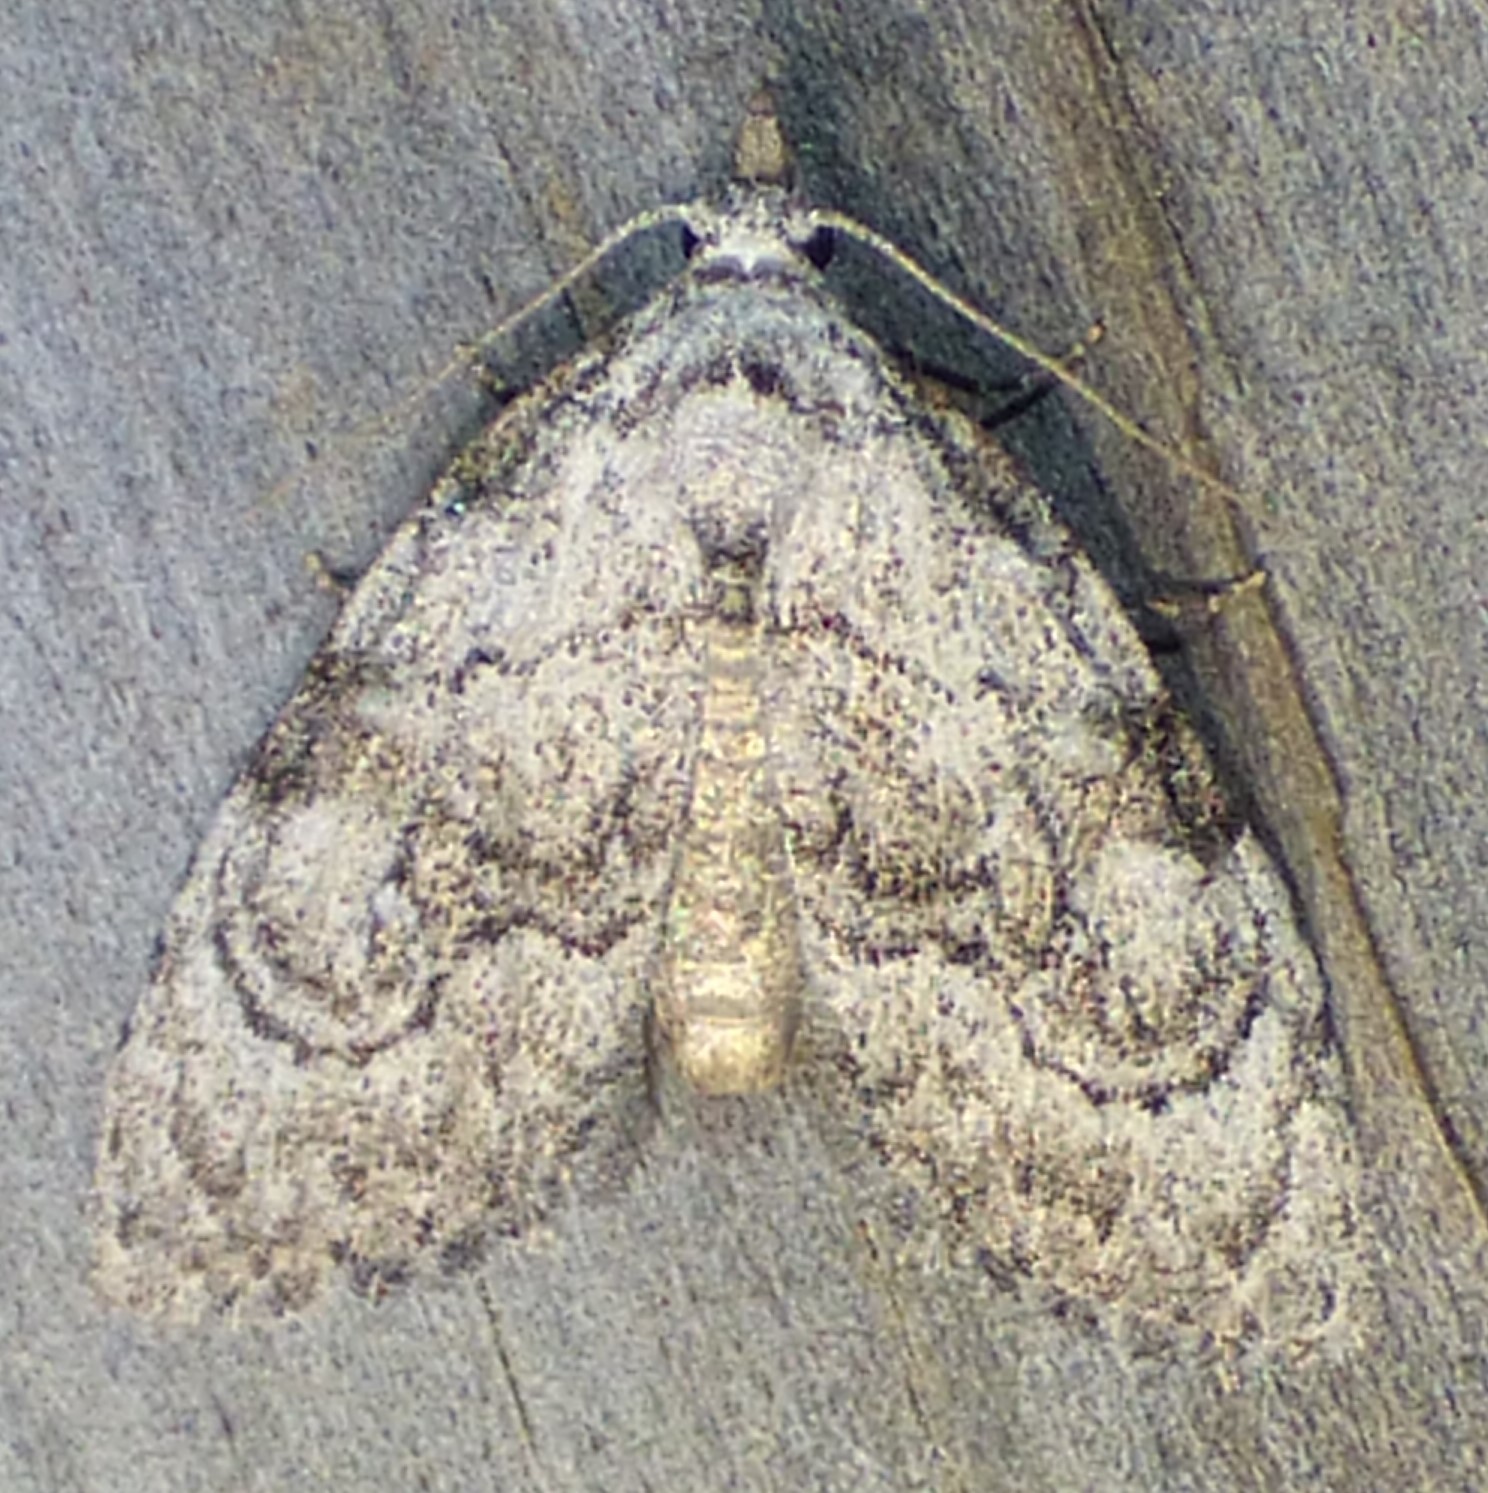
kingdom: Animalia
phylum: Arthropoda
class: Insecta
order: Lepidoptera
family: Nolidae
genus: Meganola
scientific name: Meganola minuscula
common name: Confused meganola moth
